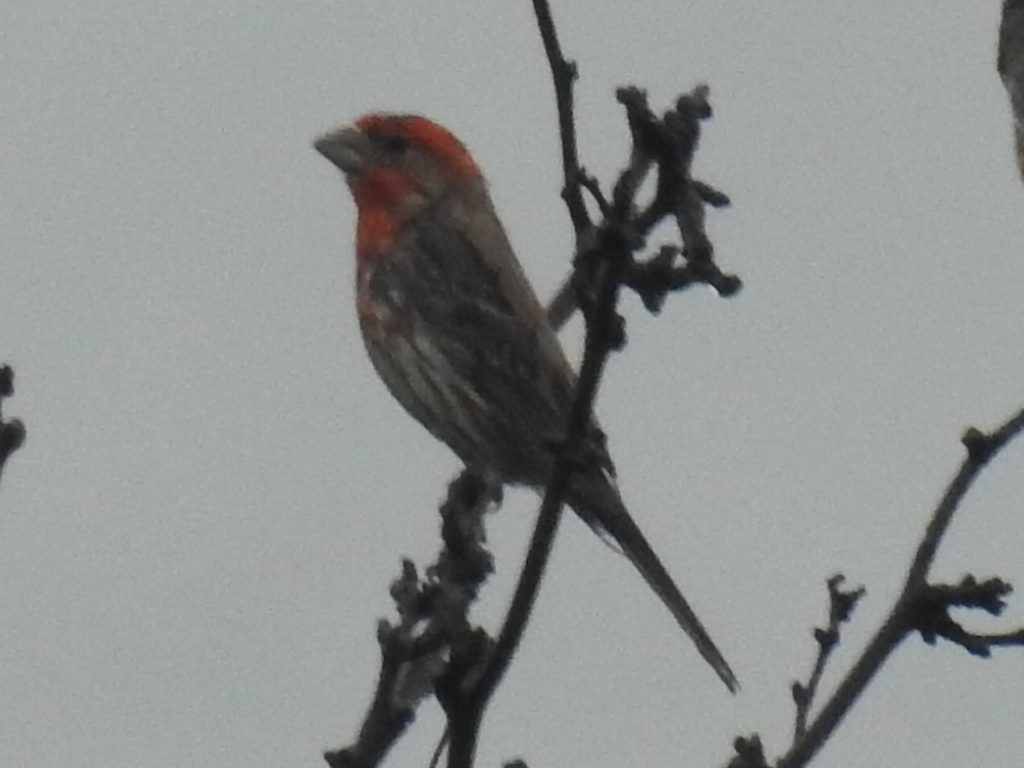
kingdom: Animalia
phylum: Chordata
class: Aves
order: Passeriformes
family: Fringillidae
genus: Haemorhous
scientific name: Haemorhous mexicanus
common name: House finch
